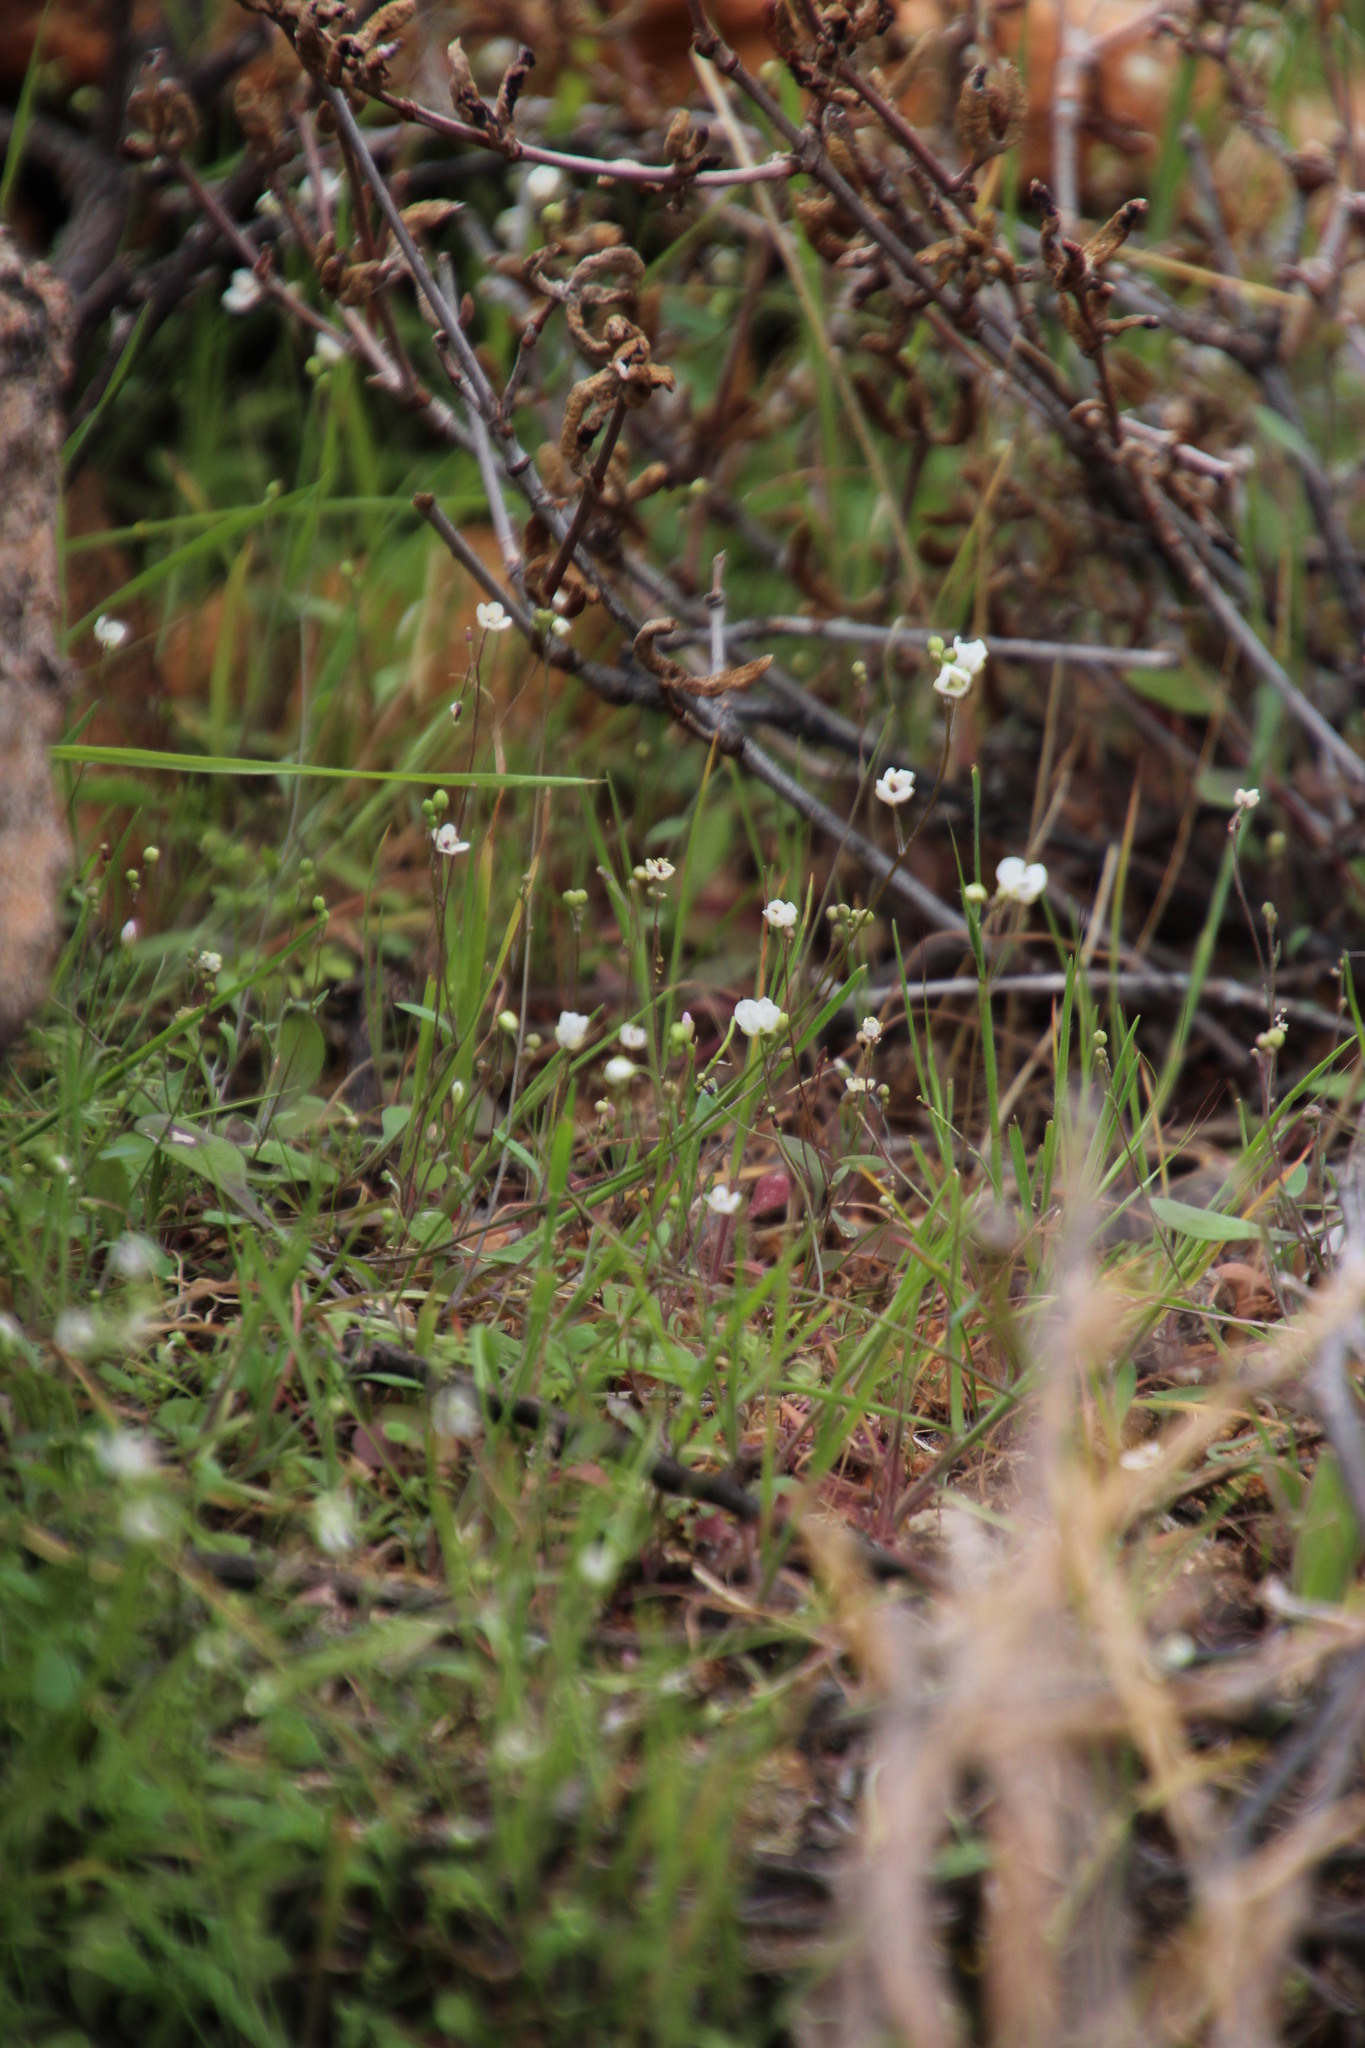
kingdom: Plantae
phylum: Tracheophyta
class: Magnoliopsida
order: Brassicales
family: Brassicaceae
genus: Heliophila
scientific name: Heliophila amplexicaulis
